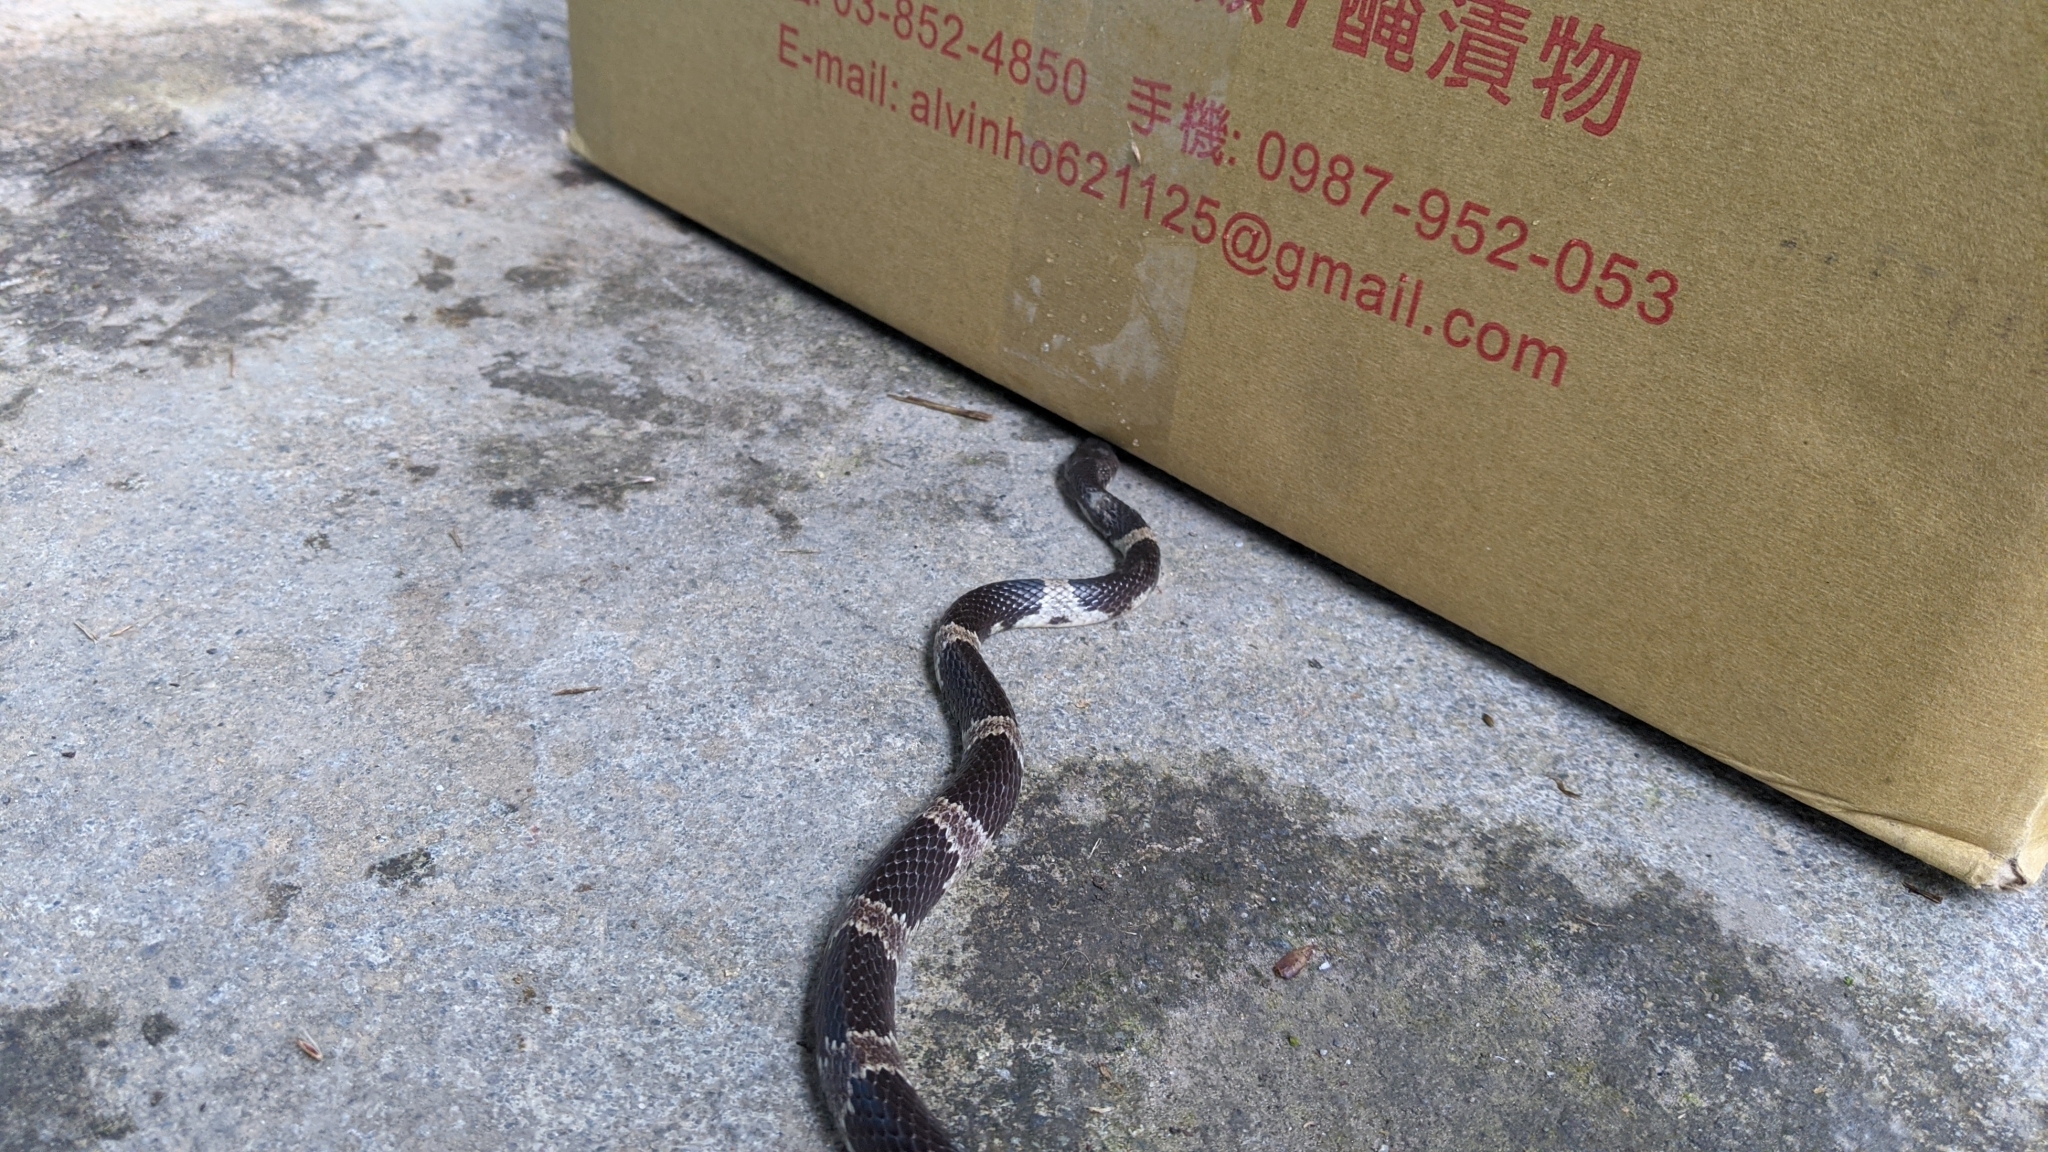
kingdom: Animalia
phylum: Chordata
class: Squamata
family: Colubridae
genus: Lycodon
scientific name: Lycodon ruhstrati
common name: Rushstrat's wolf snake
